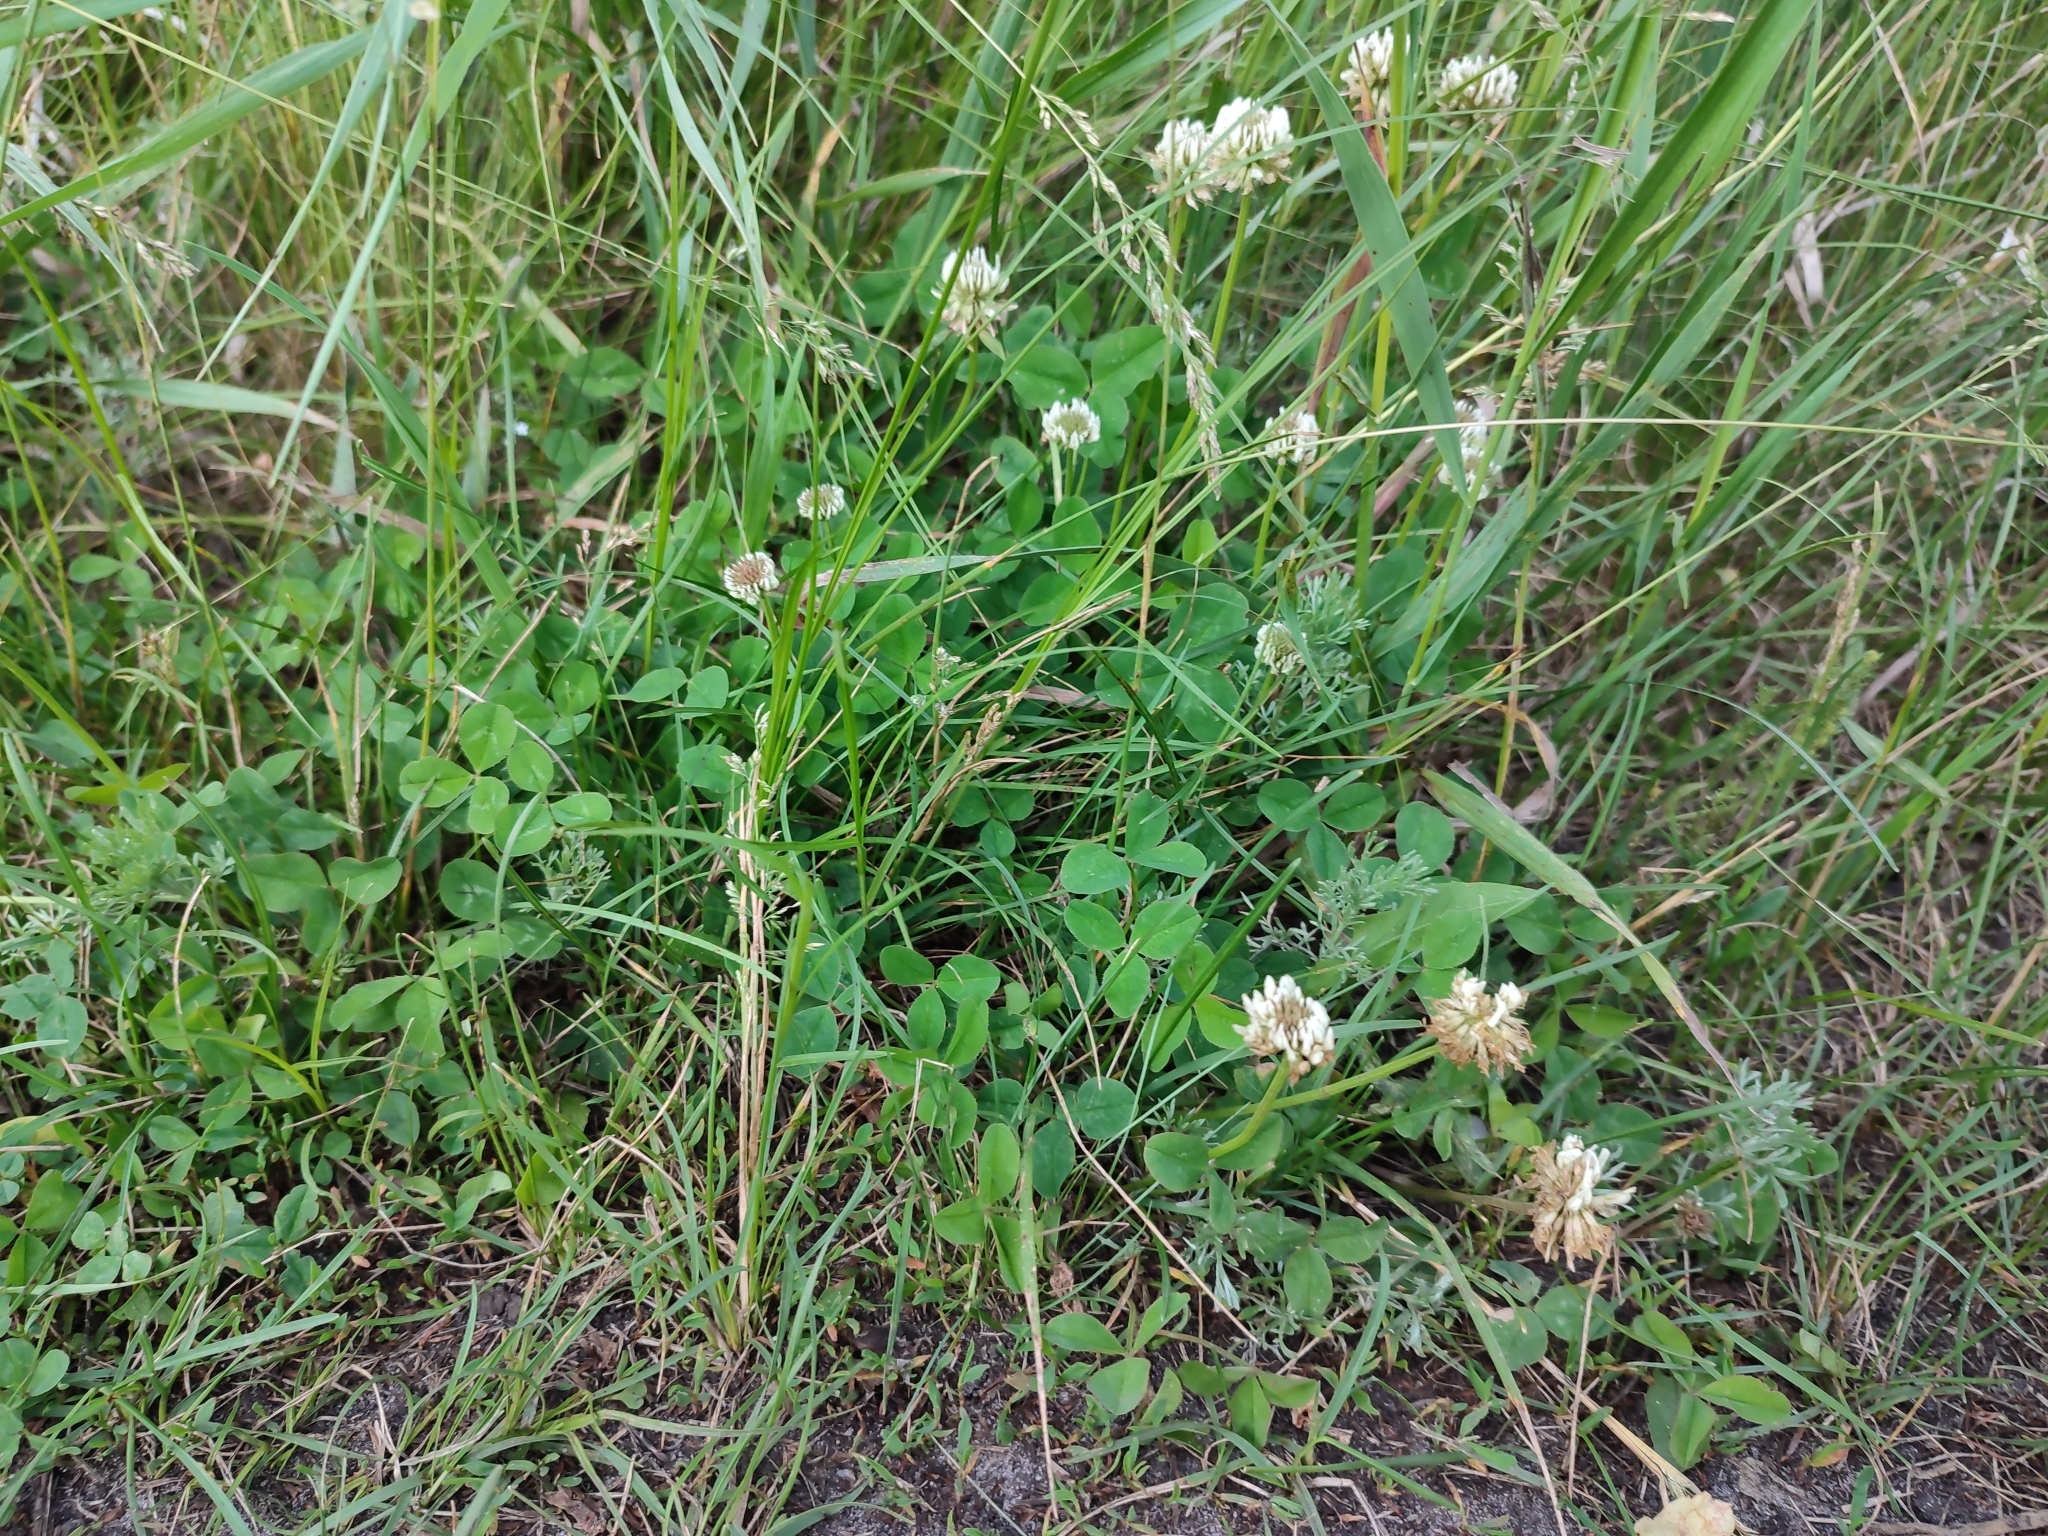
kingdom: Plantae
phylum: Tracheophyta
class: Magnoliopsida
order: Fabales
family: Fabaceae
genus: Trifolium
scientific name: Trifolium repens
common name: White clover
